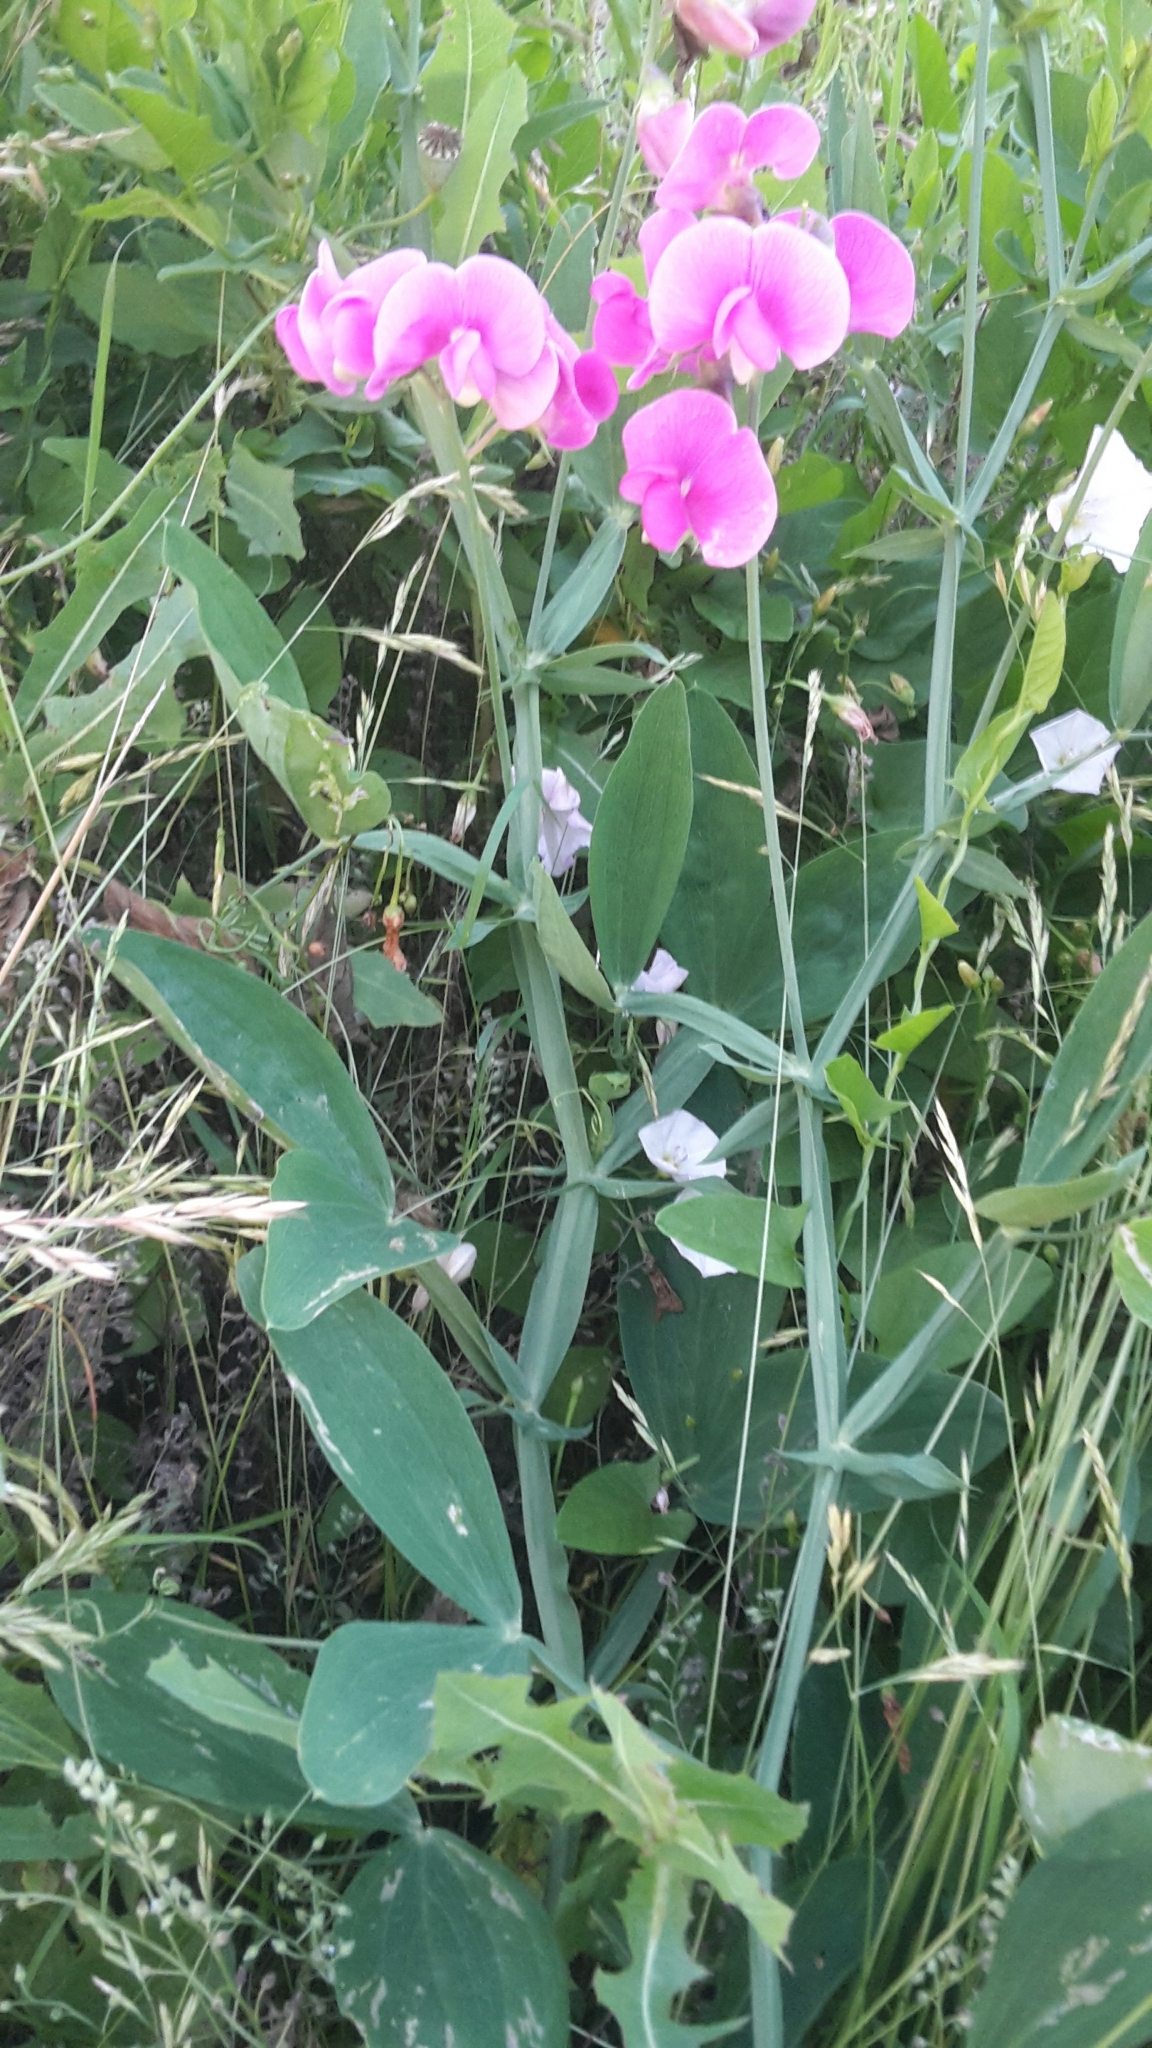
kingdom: Plantae
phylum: Tracheophyta
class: Magnoliopsida
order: Fabales
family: Fabaceae
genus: Lathyrus
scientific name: Lathyrus latifolius
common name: Perennial pea
